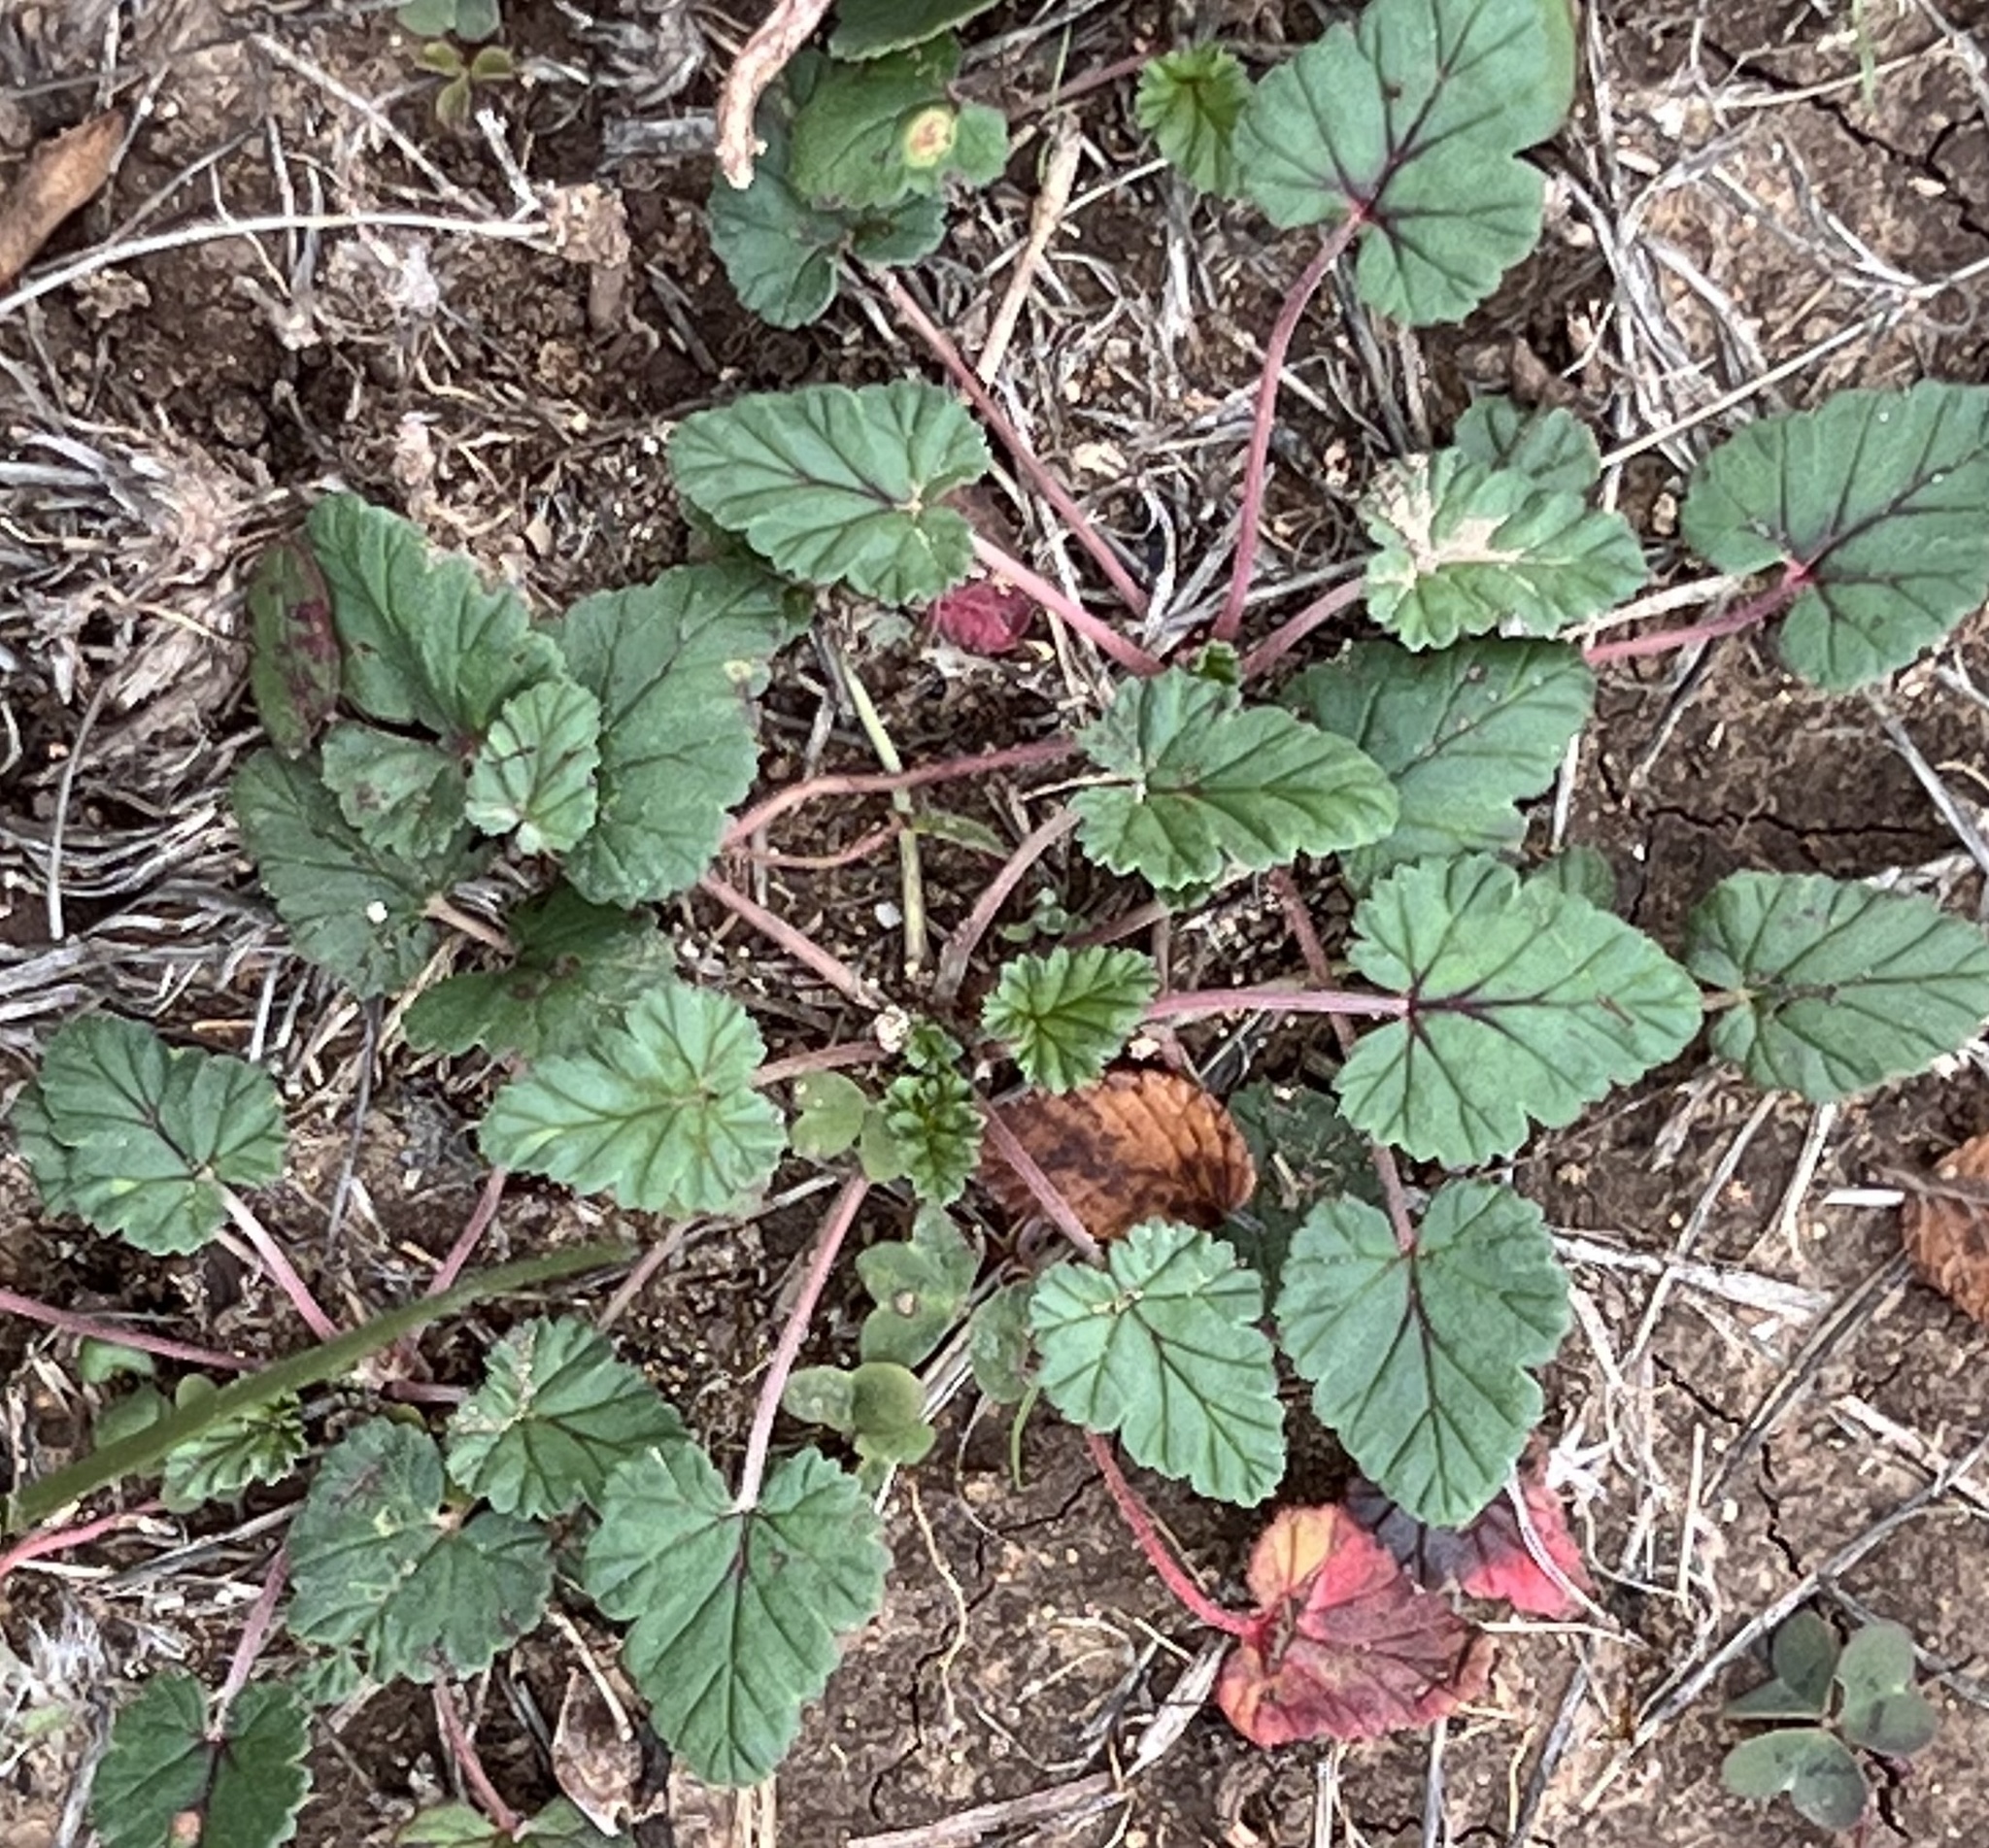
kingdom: Plantae
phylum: Tracheophyta
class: Magnoliopsida
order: Geraniales
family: Geraniaceae
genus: Erodium
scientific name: Erodium texanum
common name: Texas stork's-bill
